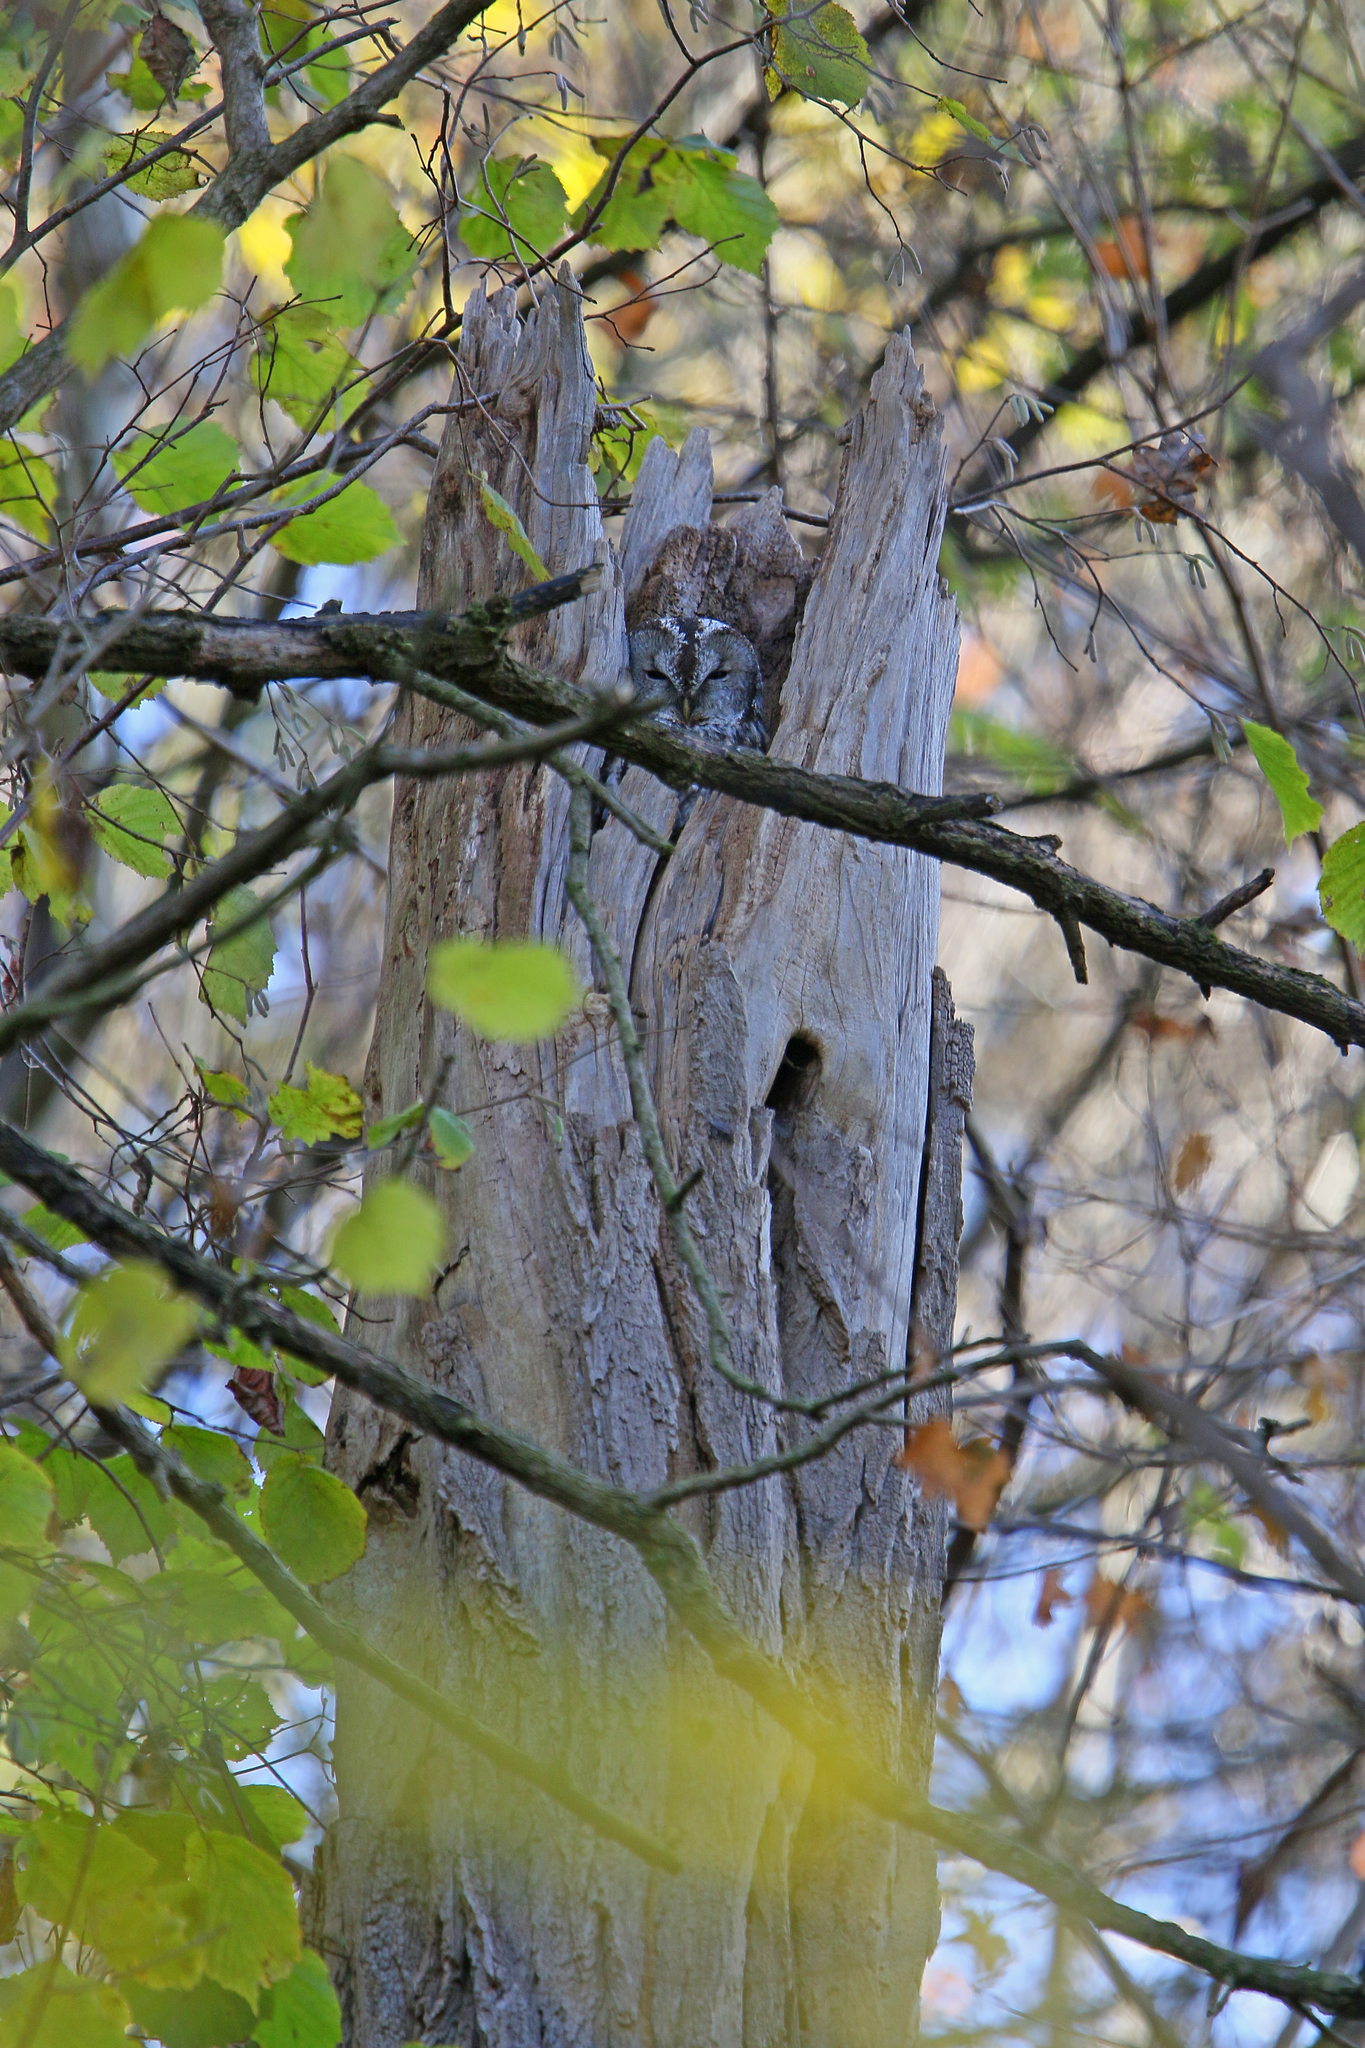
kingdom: Animalia
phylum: Chordata
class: Aves
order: Strigiformes
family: Strigidae
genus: Strix
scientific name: Strix aluco
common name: Tawny owl
